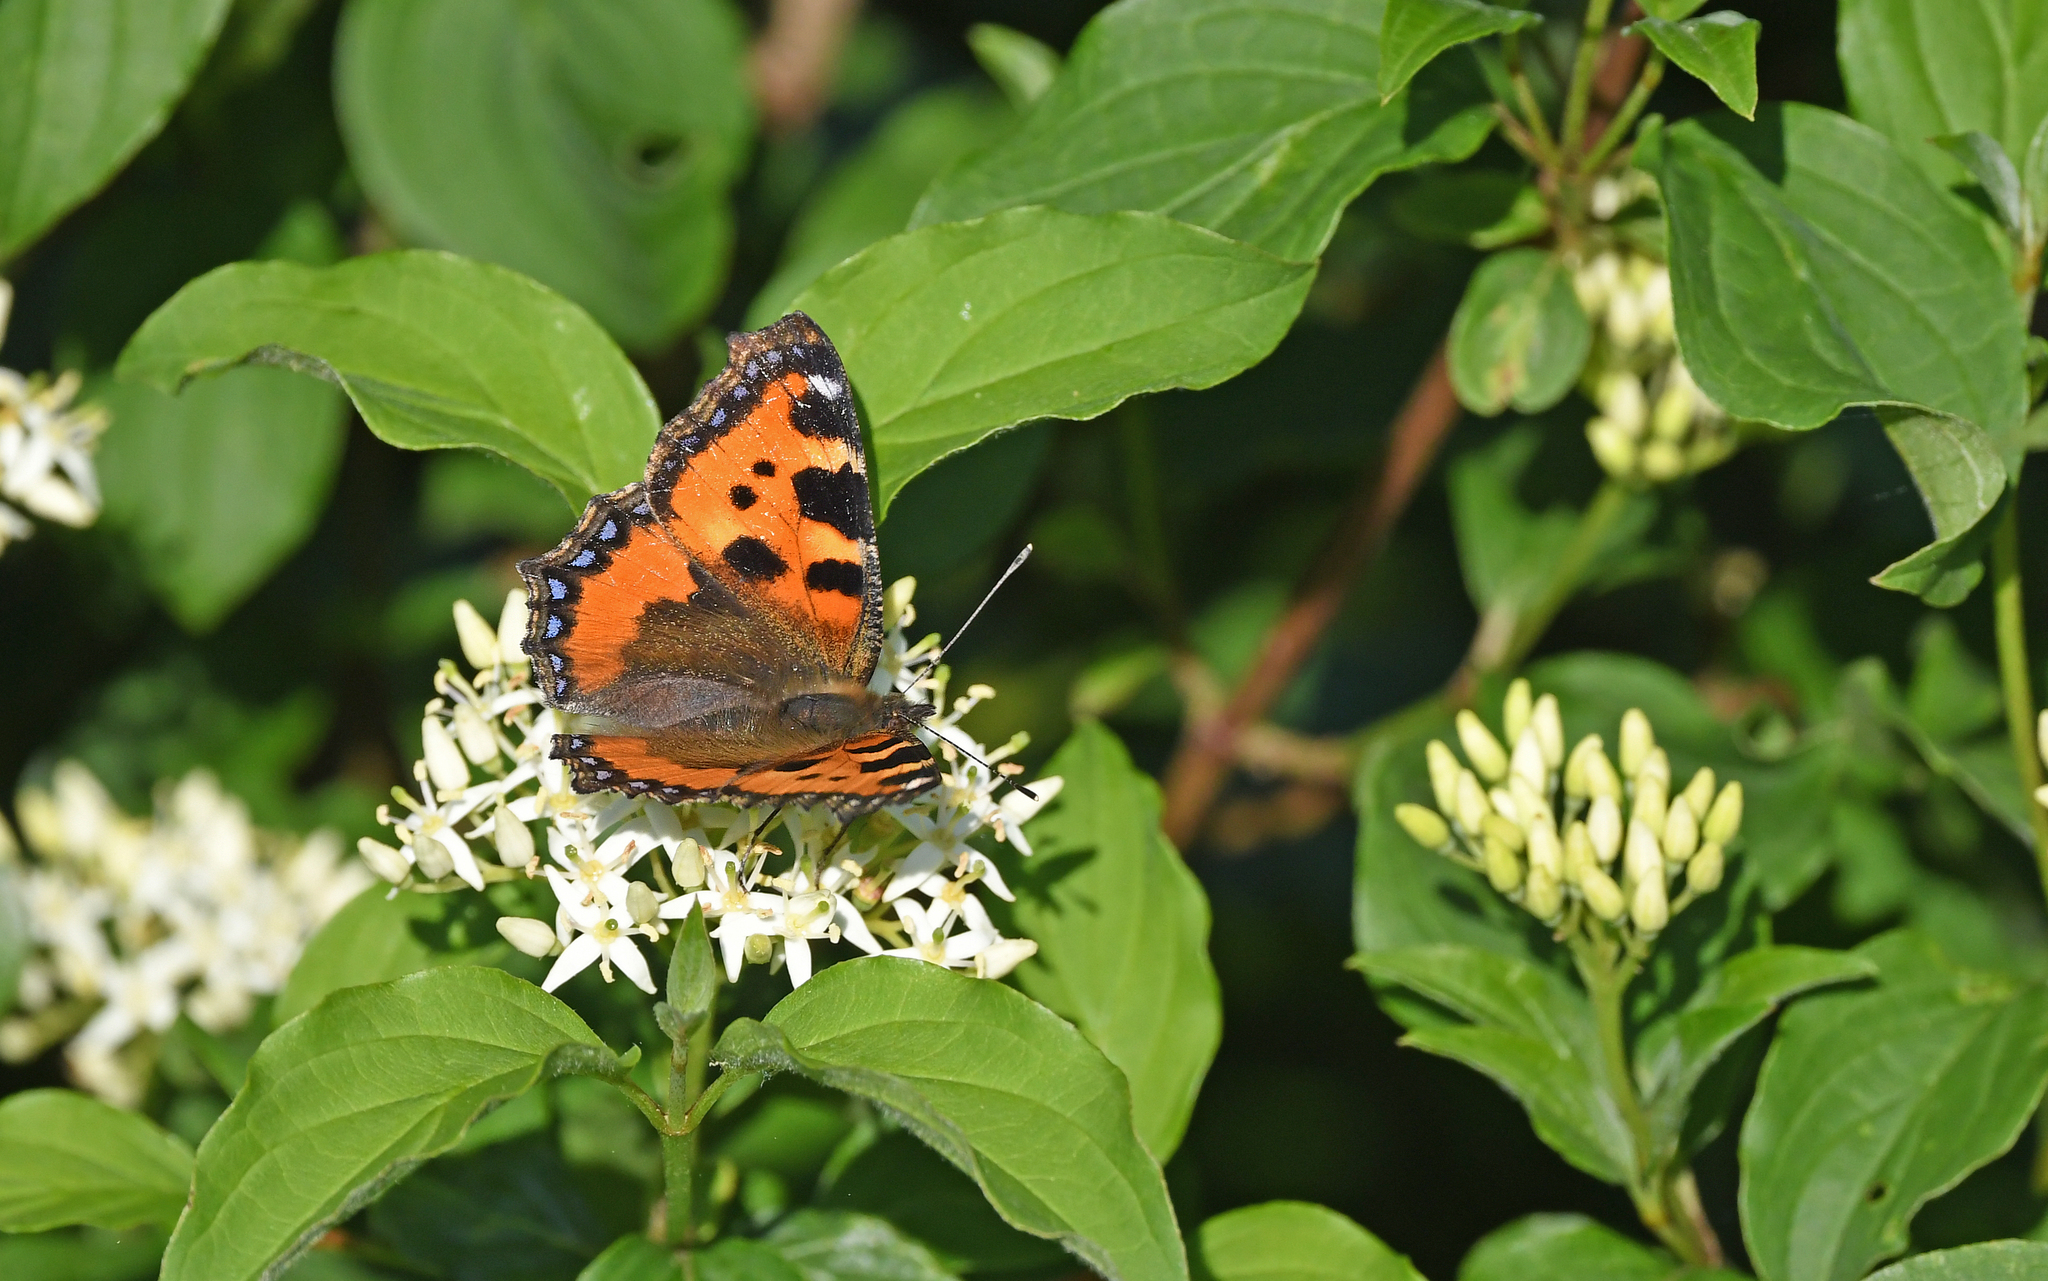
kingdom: Animalia
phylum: Arthropoda
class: Insecta
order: Lepidoptera
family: Nymphalidae
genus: Aglais
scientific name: Aglais urticae
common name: Small tortoiseshell
